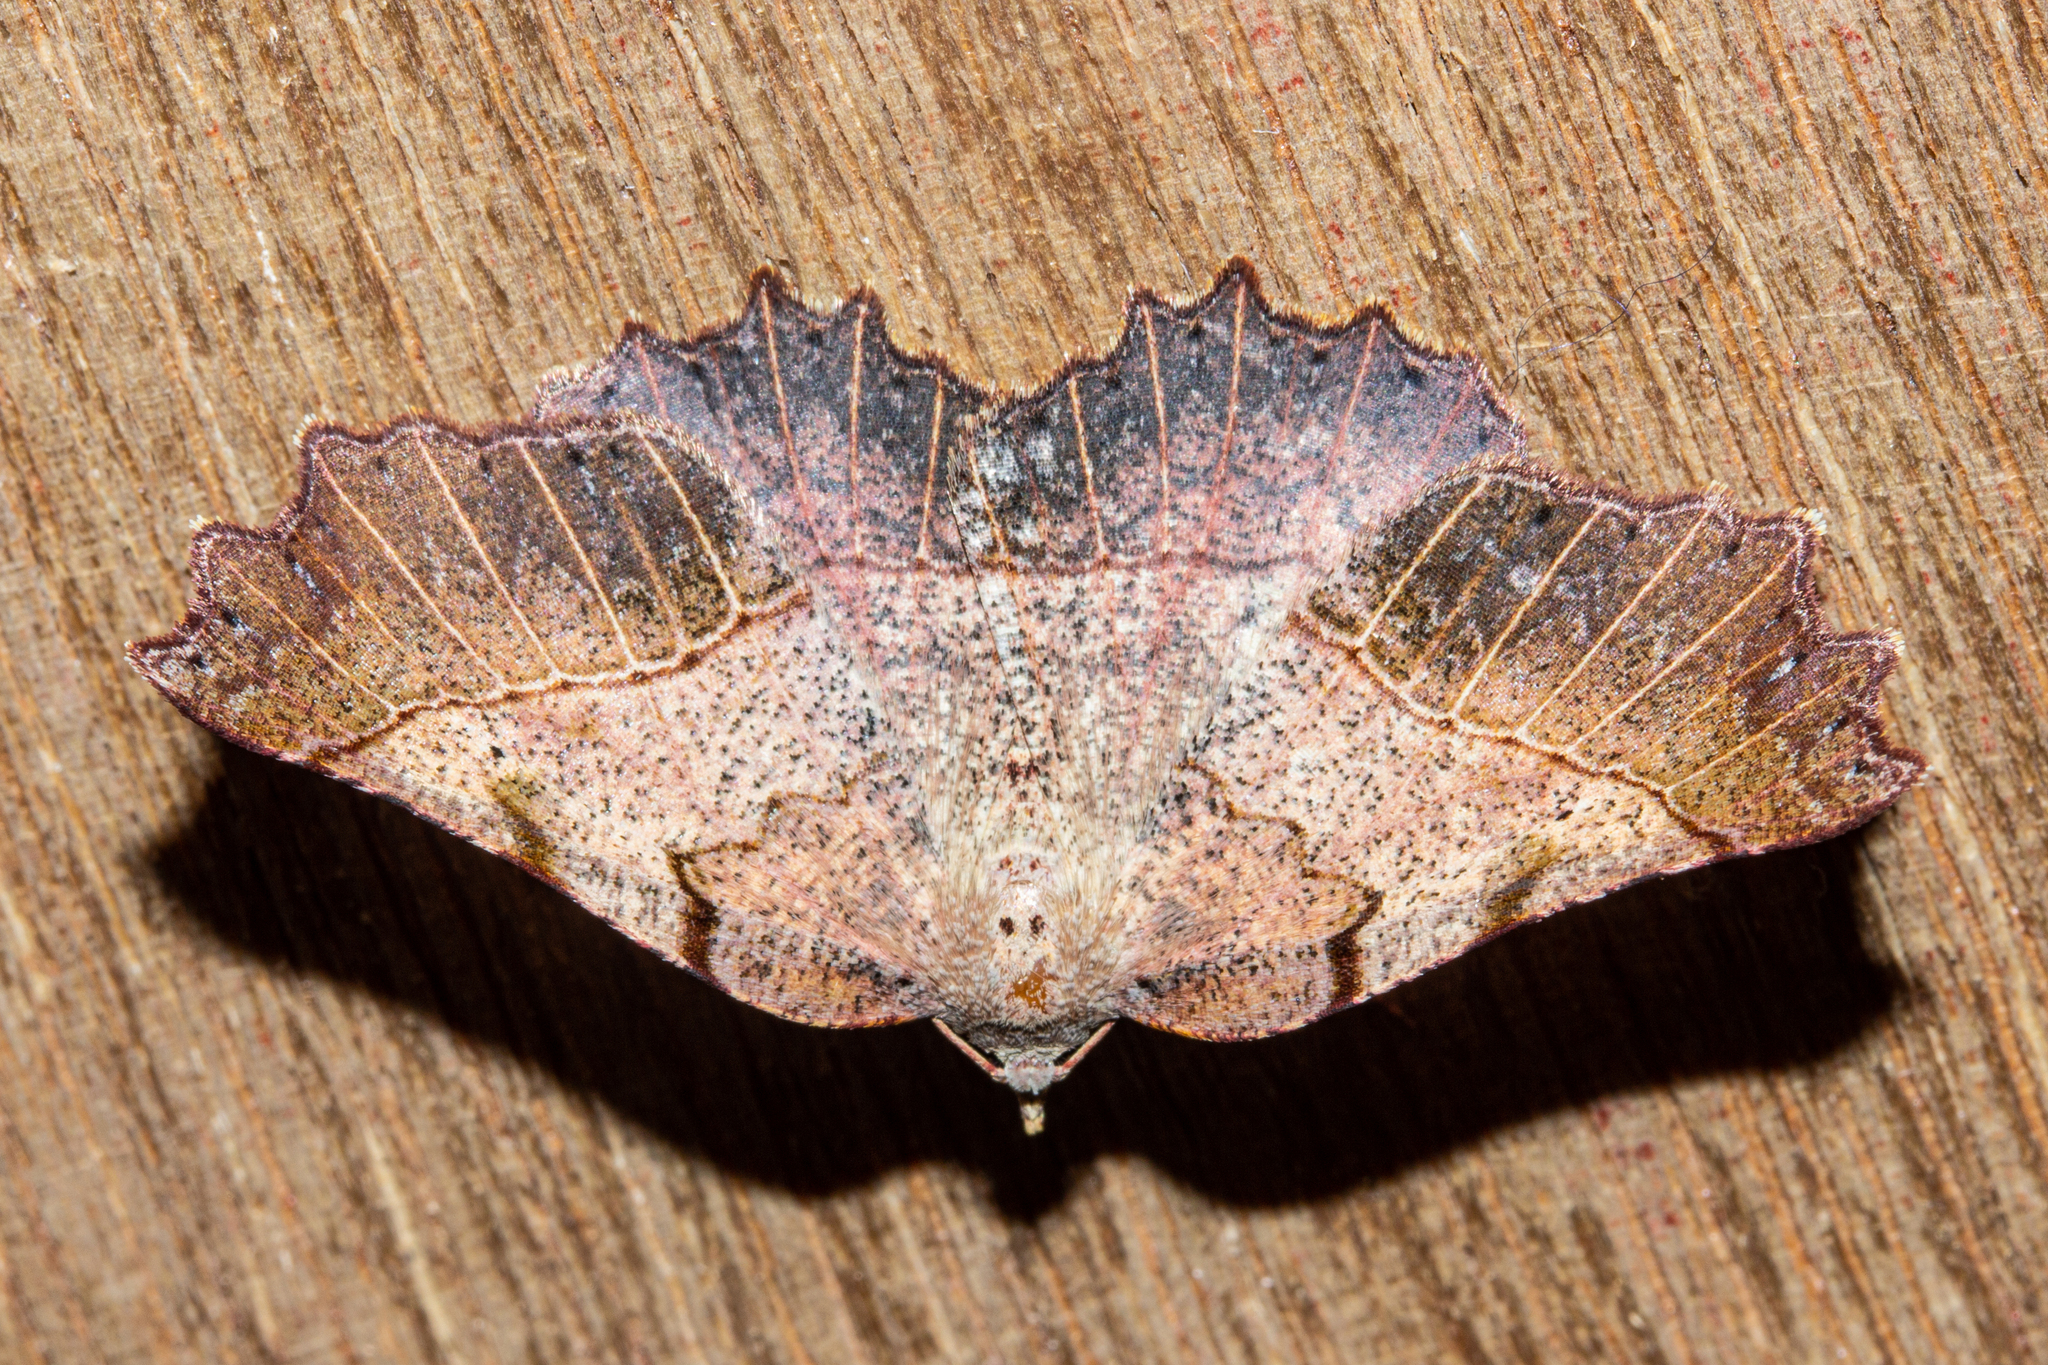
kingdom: Animalia
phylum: Arthropoda
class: Insecta
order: Lepidoptera
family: Geometridae
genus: Ischalis
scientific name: Ischalis gallaria
